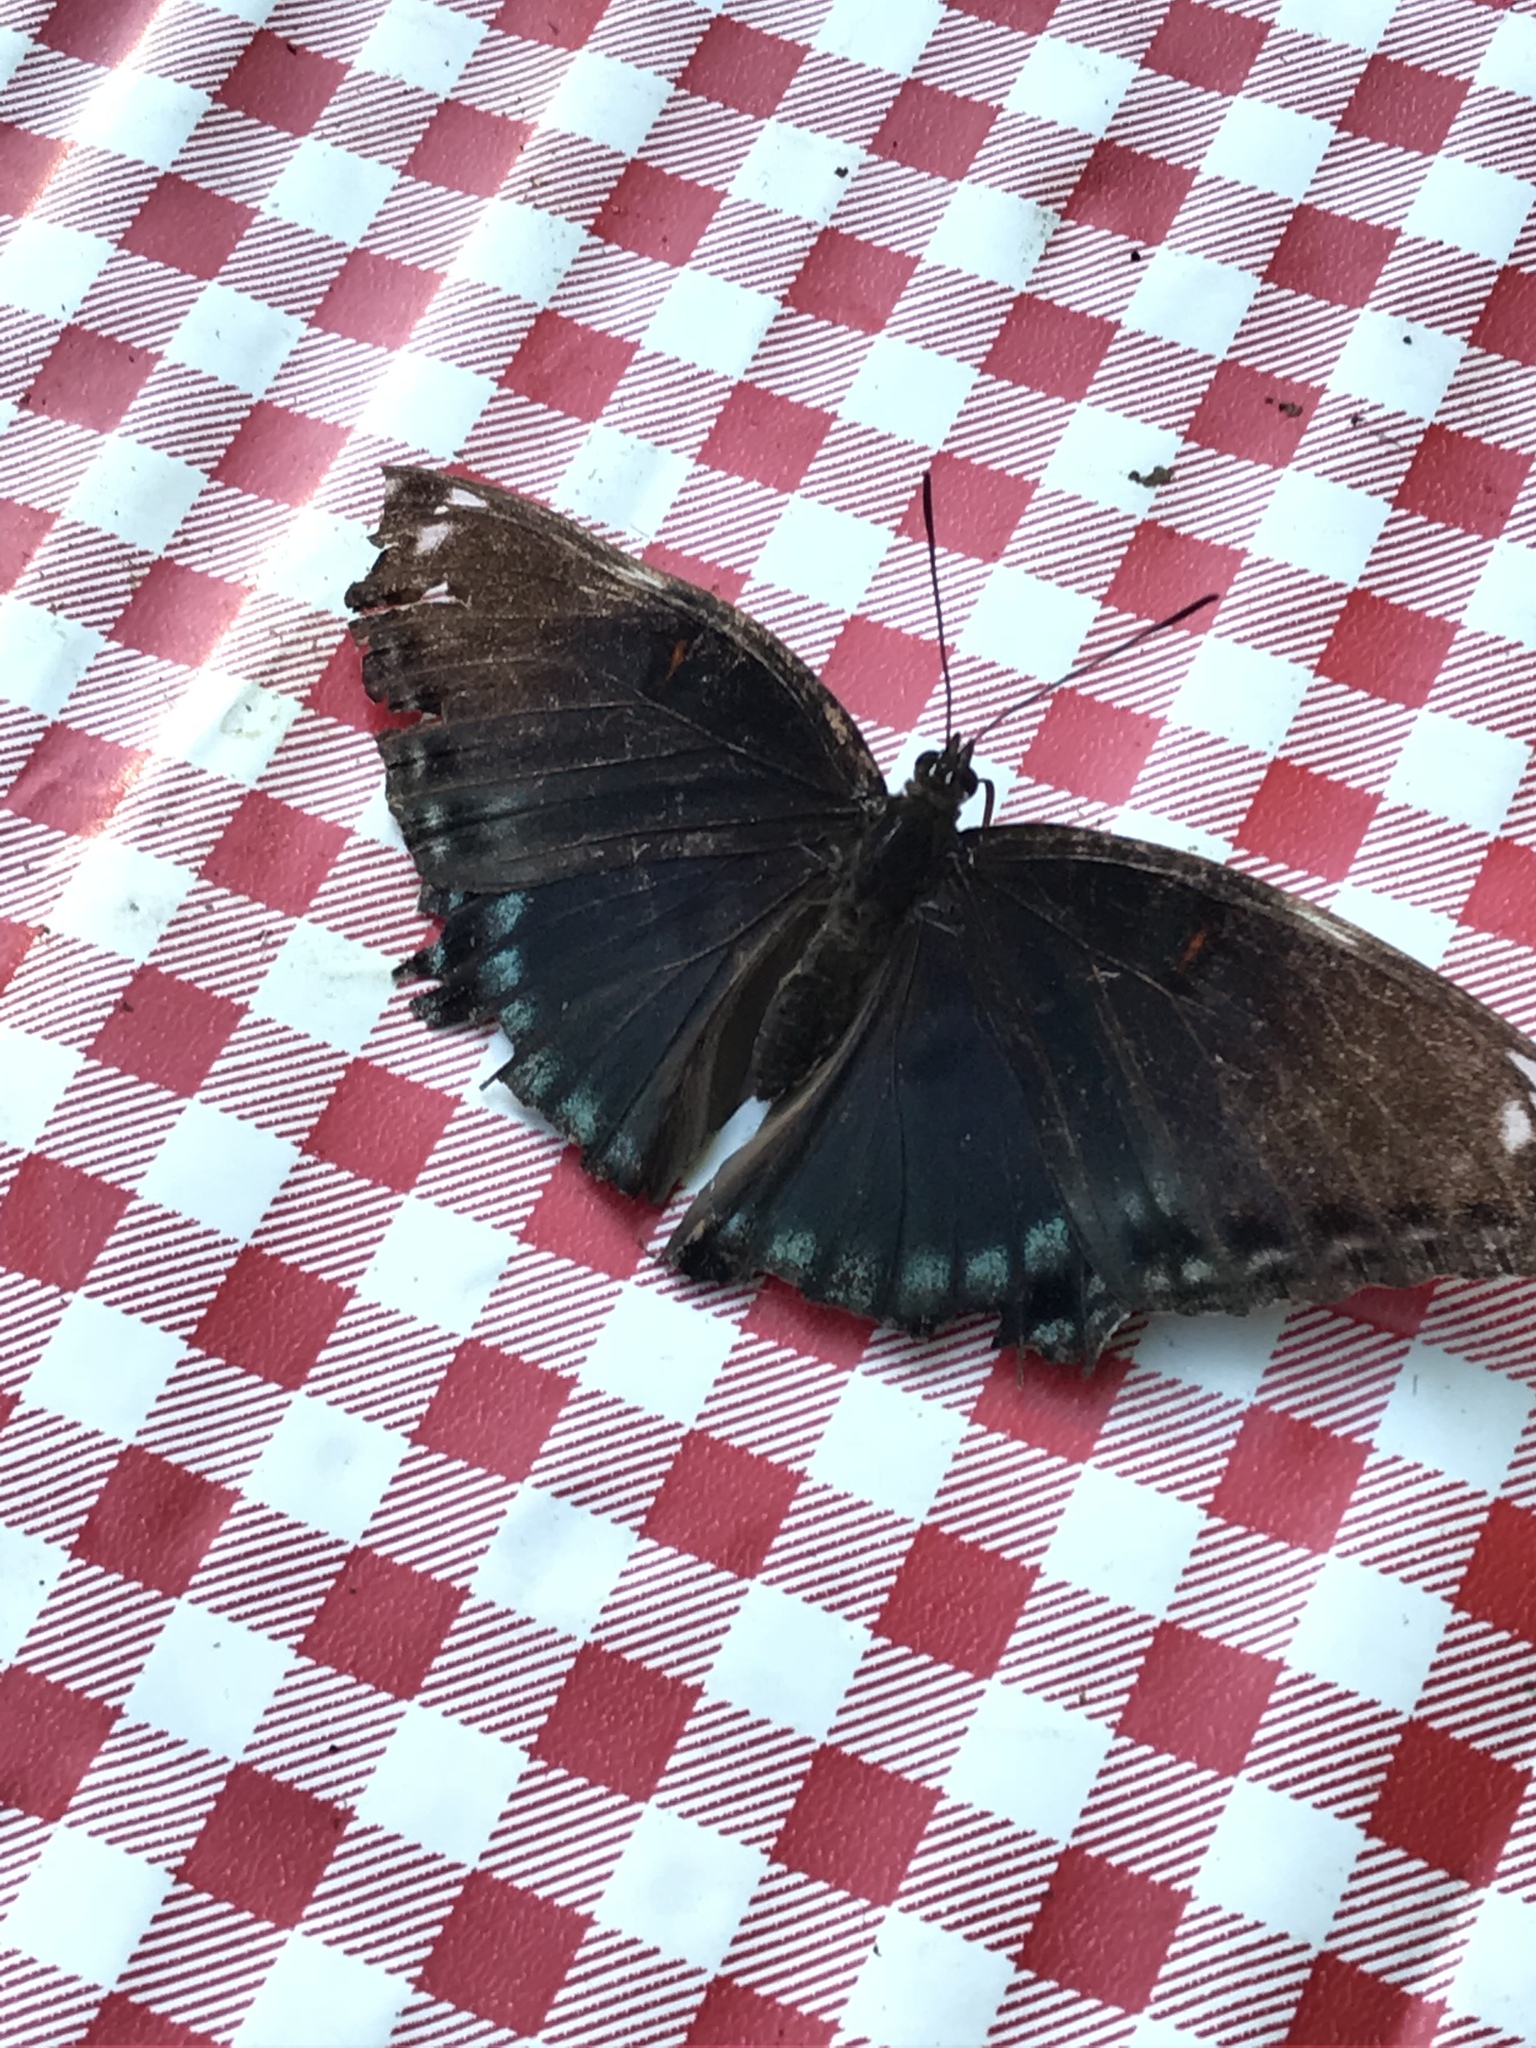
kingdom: Animalia
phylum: Arthropoda
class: Insecta
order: Lepidoptera
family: Nymphalidae
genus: Limenitis
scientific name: Limenitis astyanax
